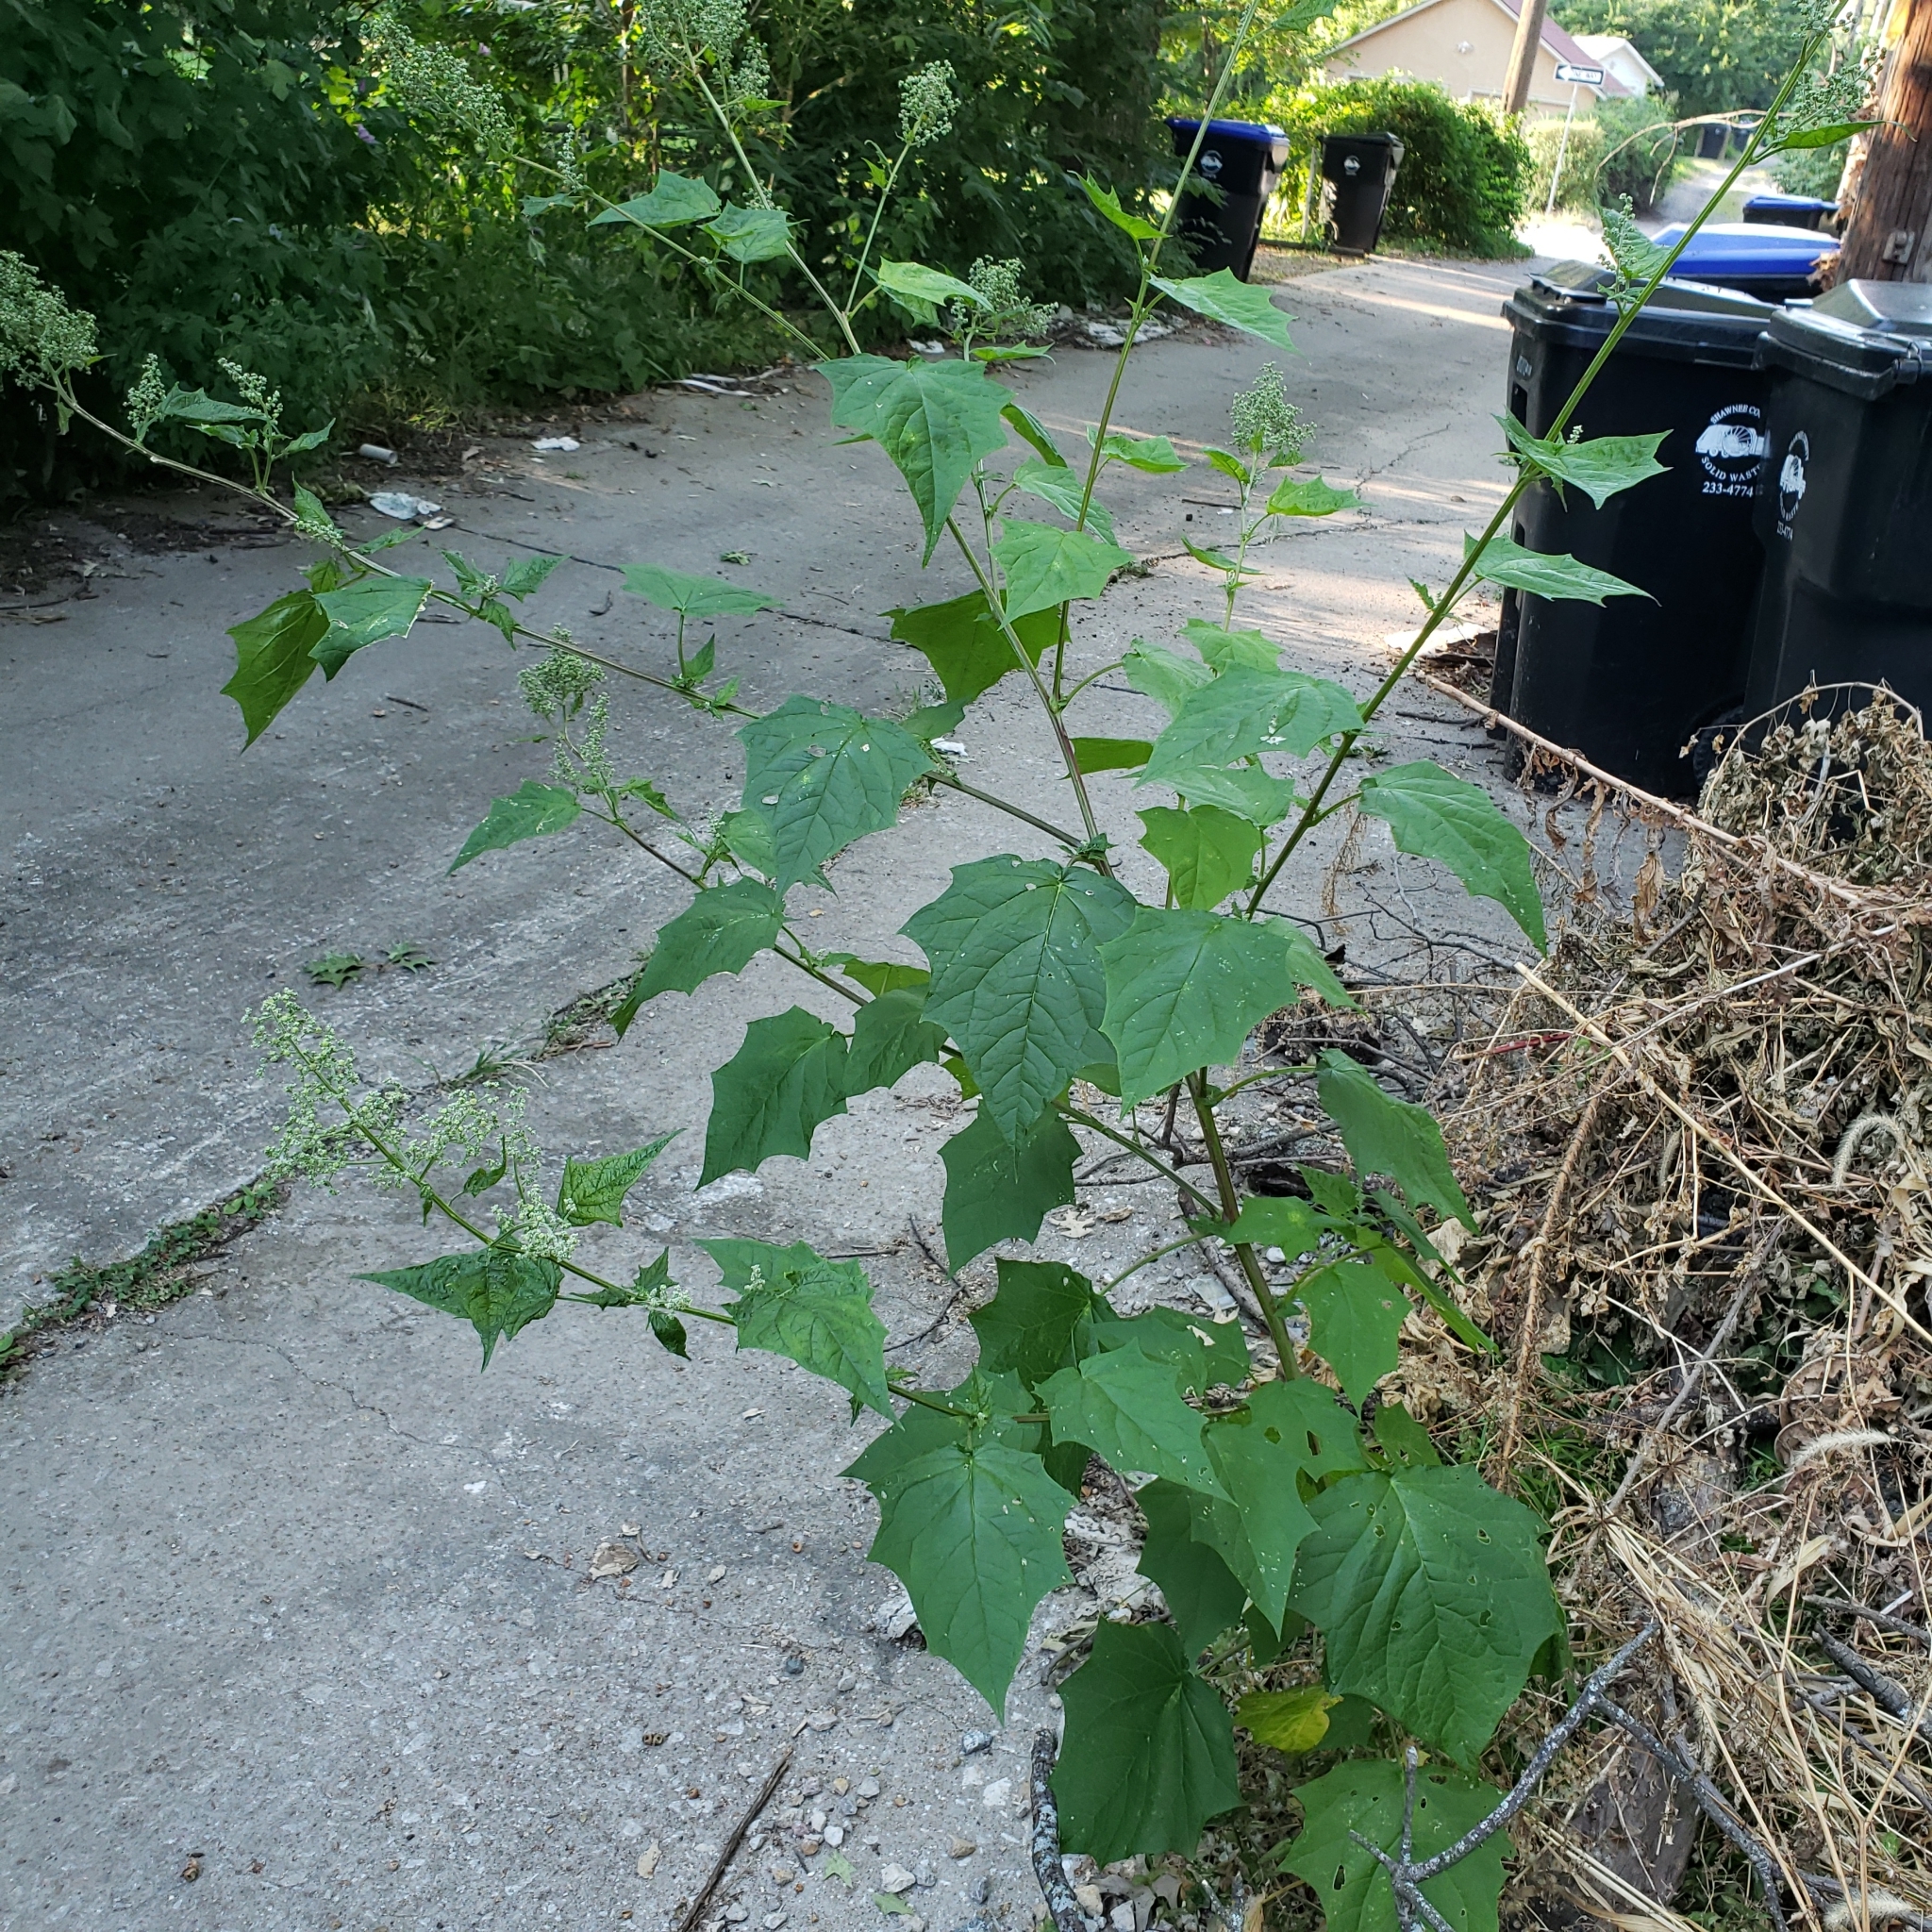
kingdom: Plantae
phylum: Tracheophyta
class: Magnoliopsida
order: Caryophyllales
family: Amaranthaceae
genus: Chenopodiastrum
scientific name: Chenopodiastrum hybridum
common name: Mapleleaf goosefoot
